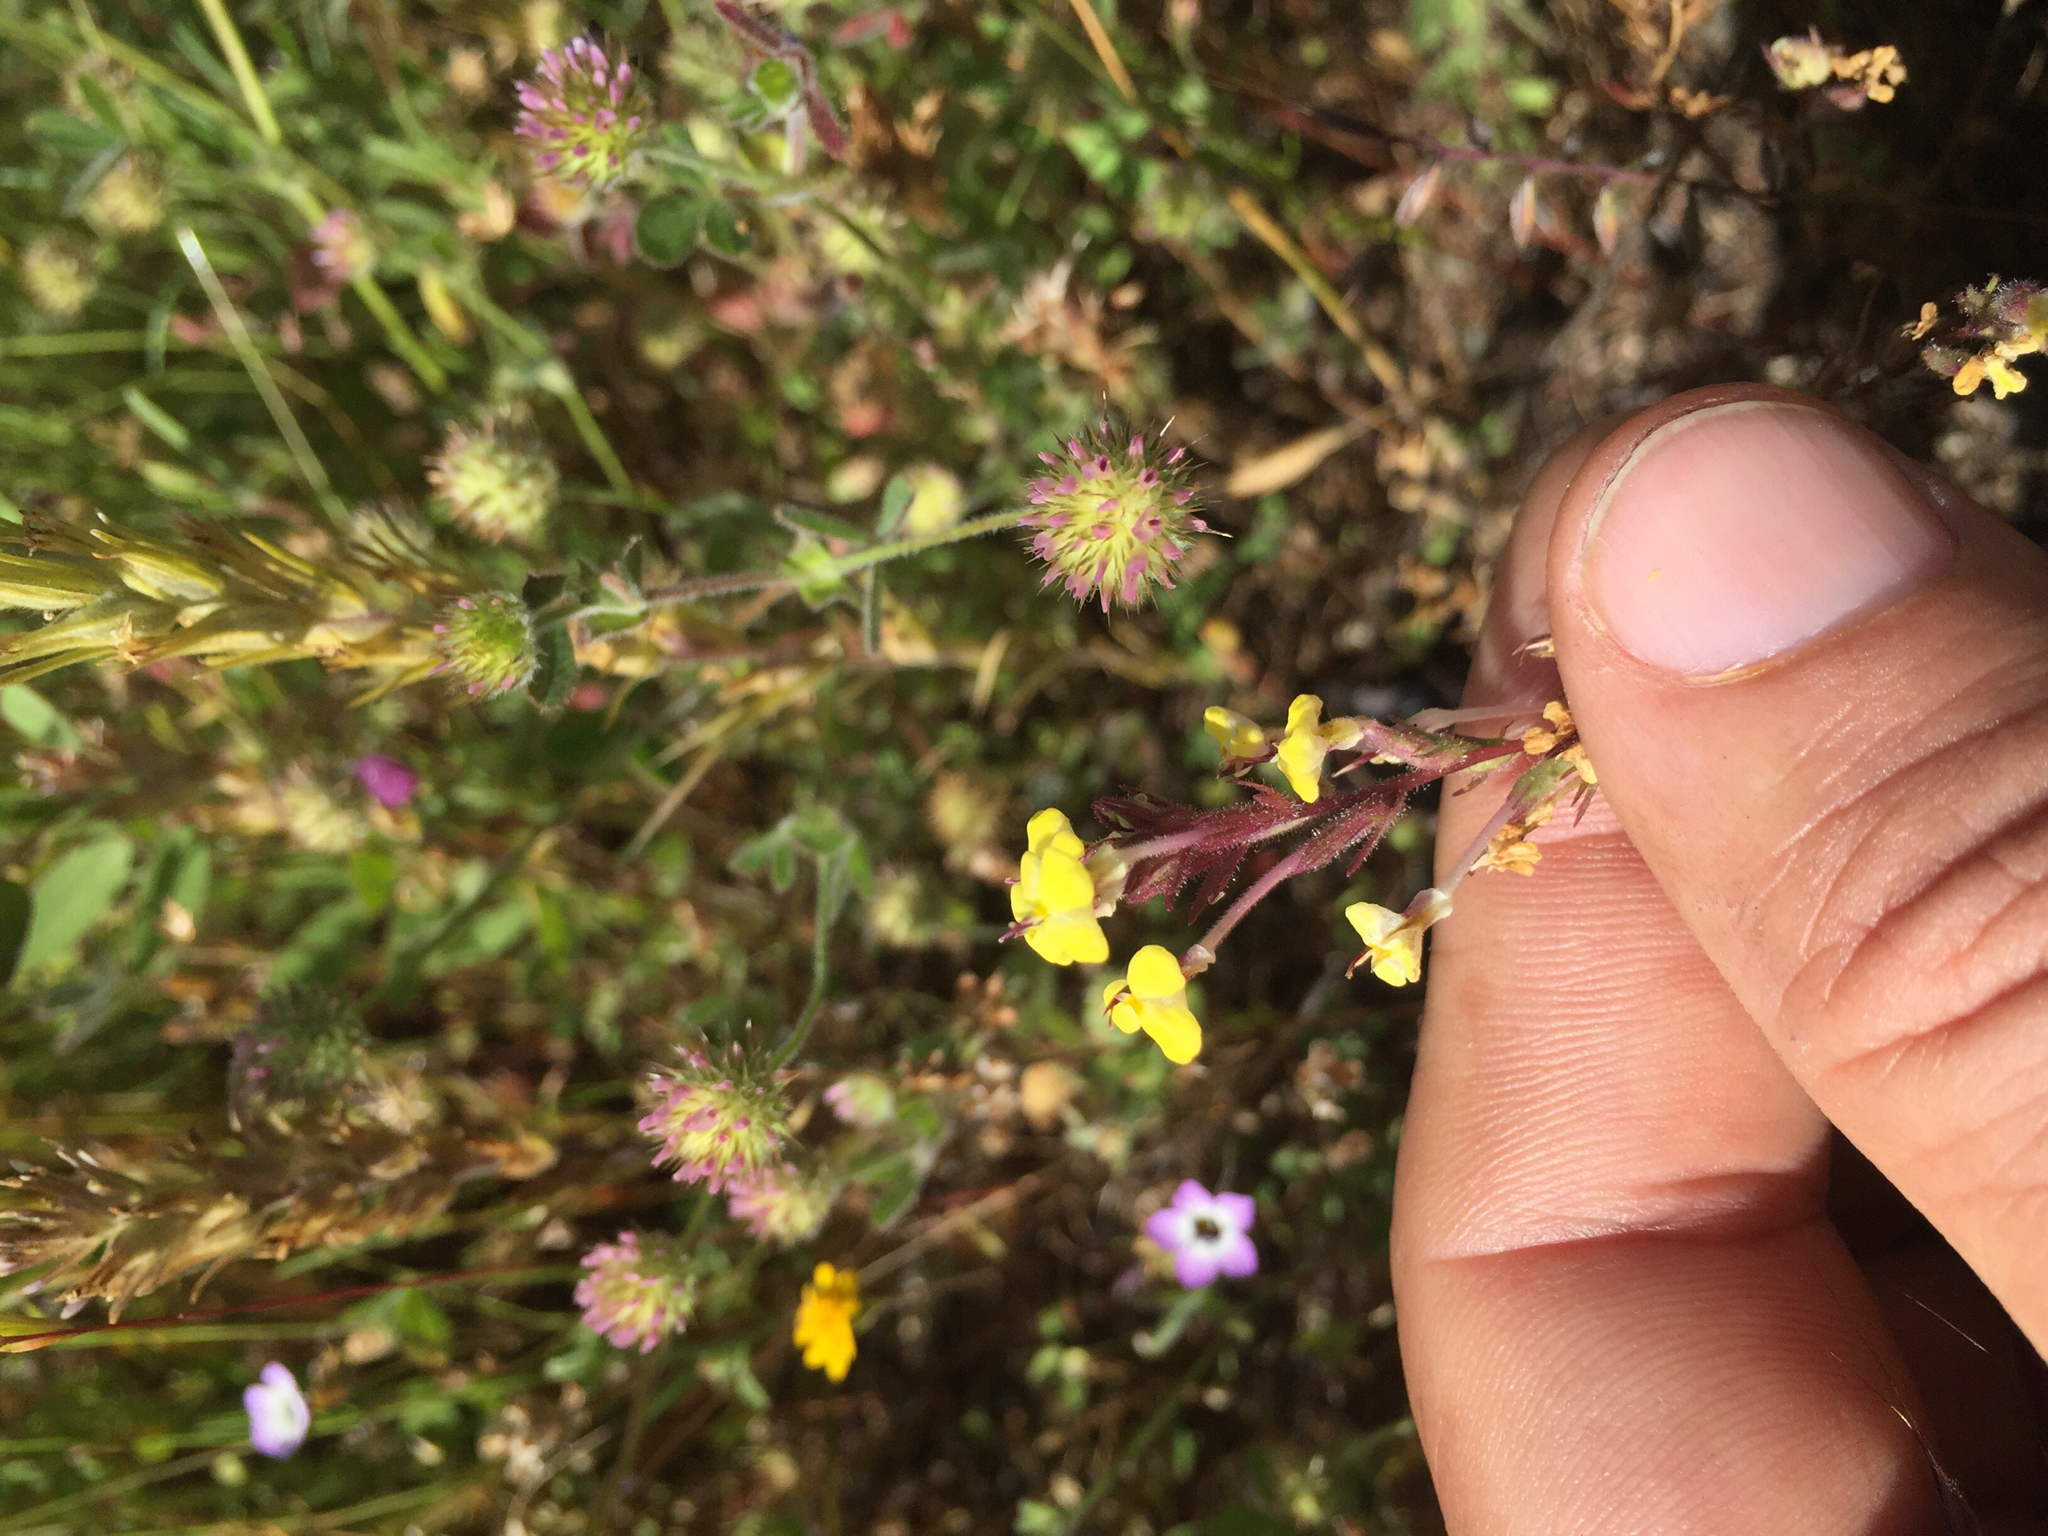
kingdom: Plantae
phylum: Tracheophyta
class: Magnoliopsida
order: Lamiales
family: Orobanchaceae
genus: Triphysaria
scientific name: Triphysaria eriantha
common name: Johnny-tuck
